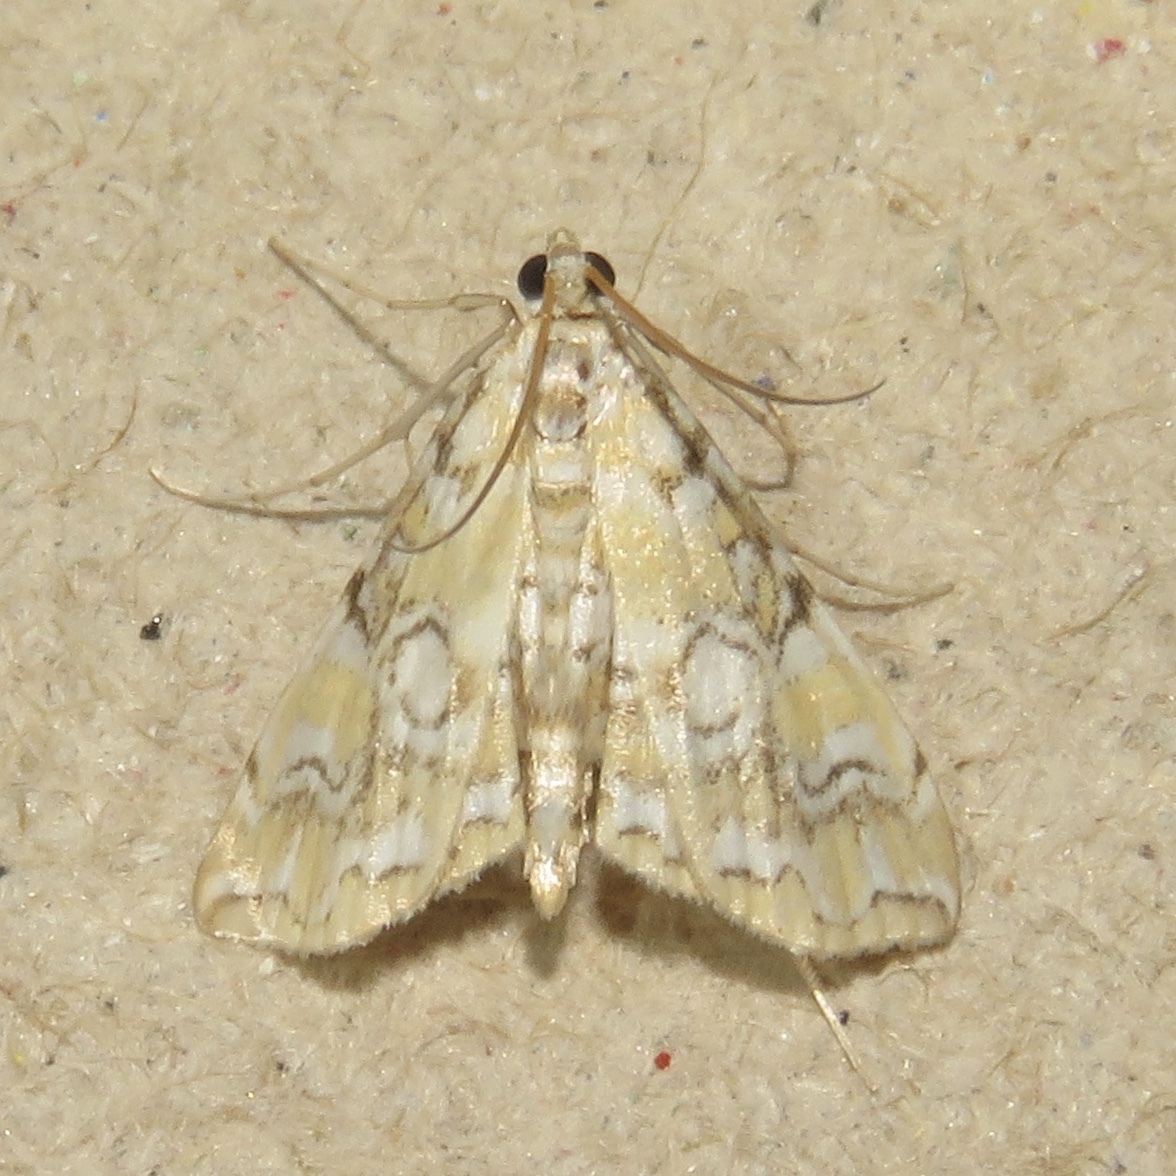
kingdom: Animalia
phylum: Arthropoda
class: Insecta
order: Lepidoptera
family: Crambidae
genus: Elophila
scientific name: Elophila icciusalis
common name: Pondside pyralid moth
